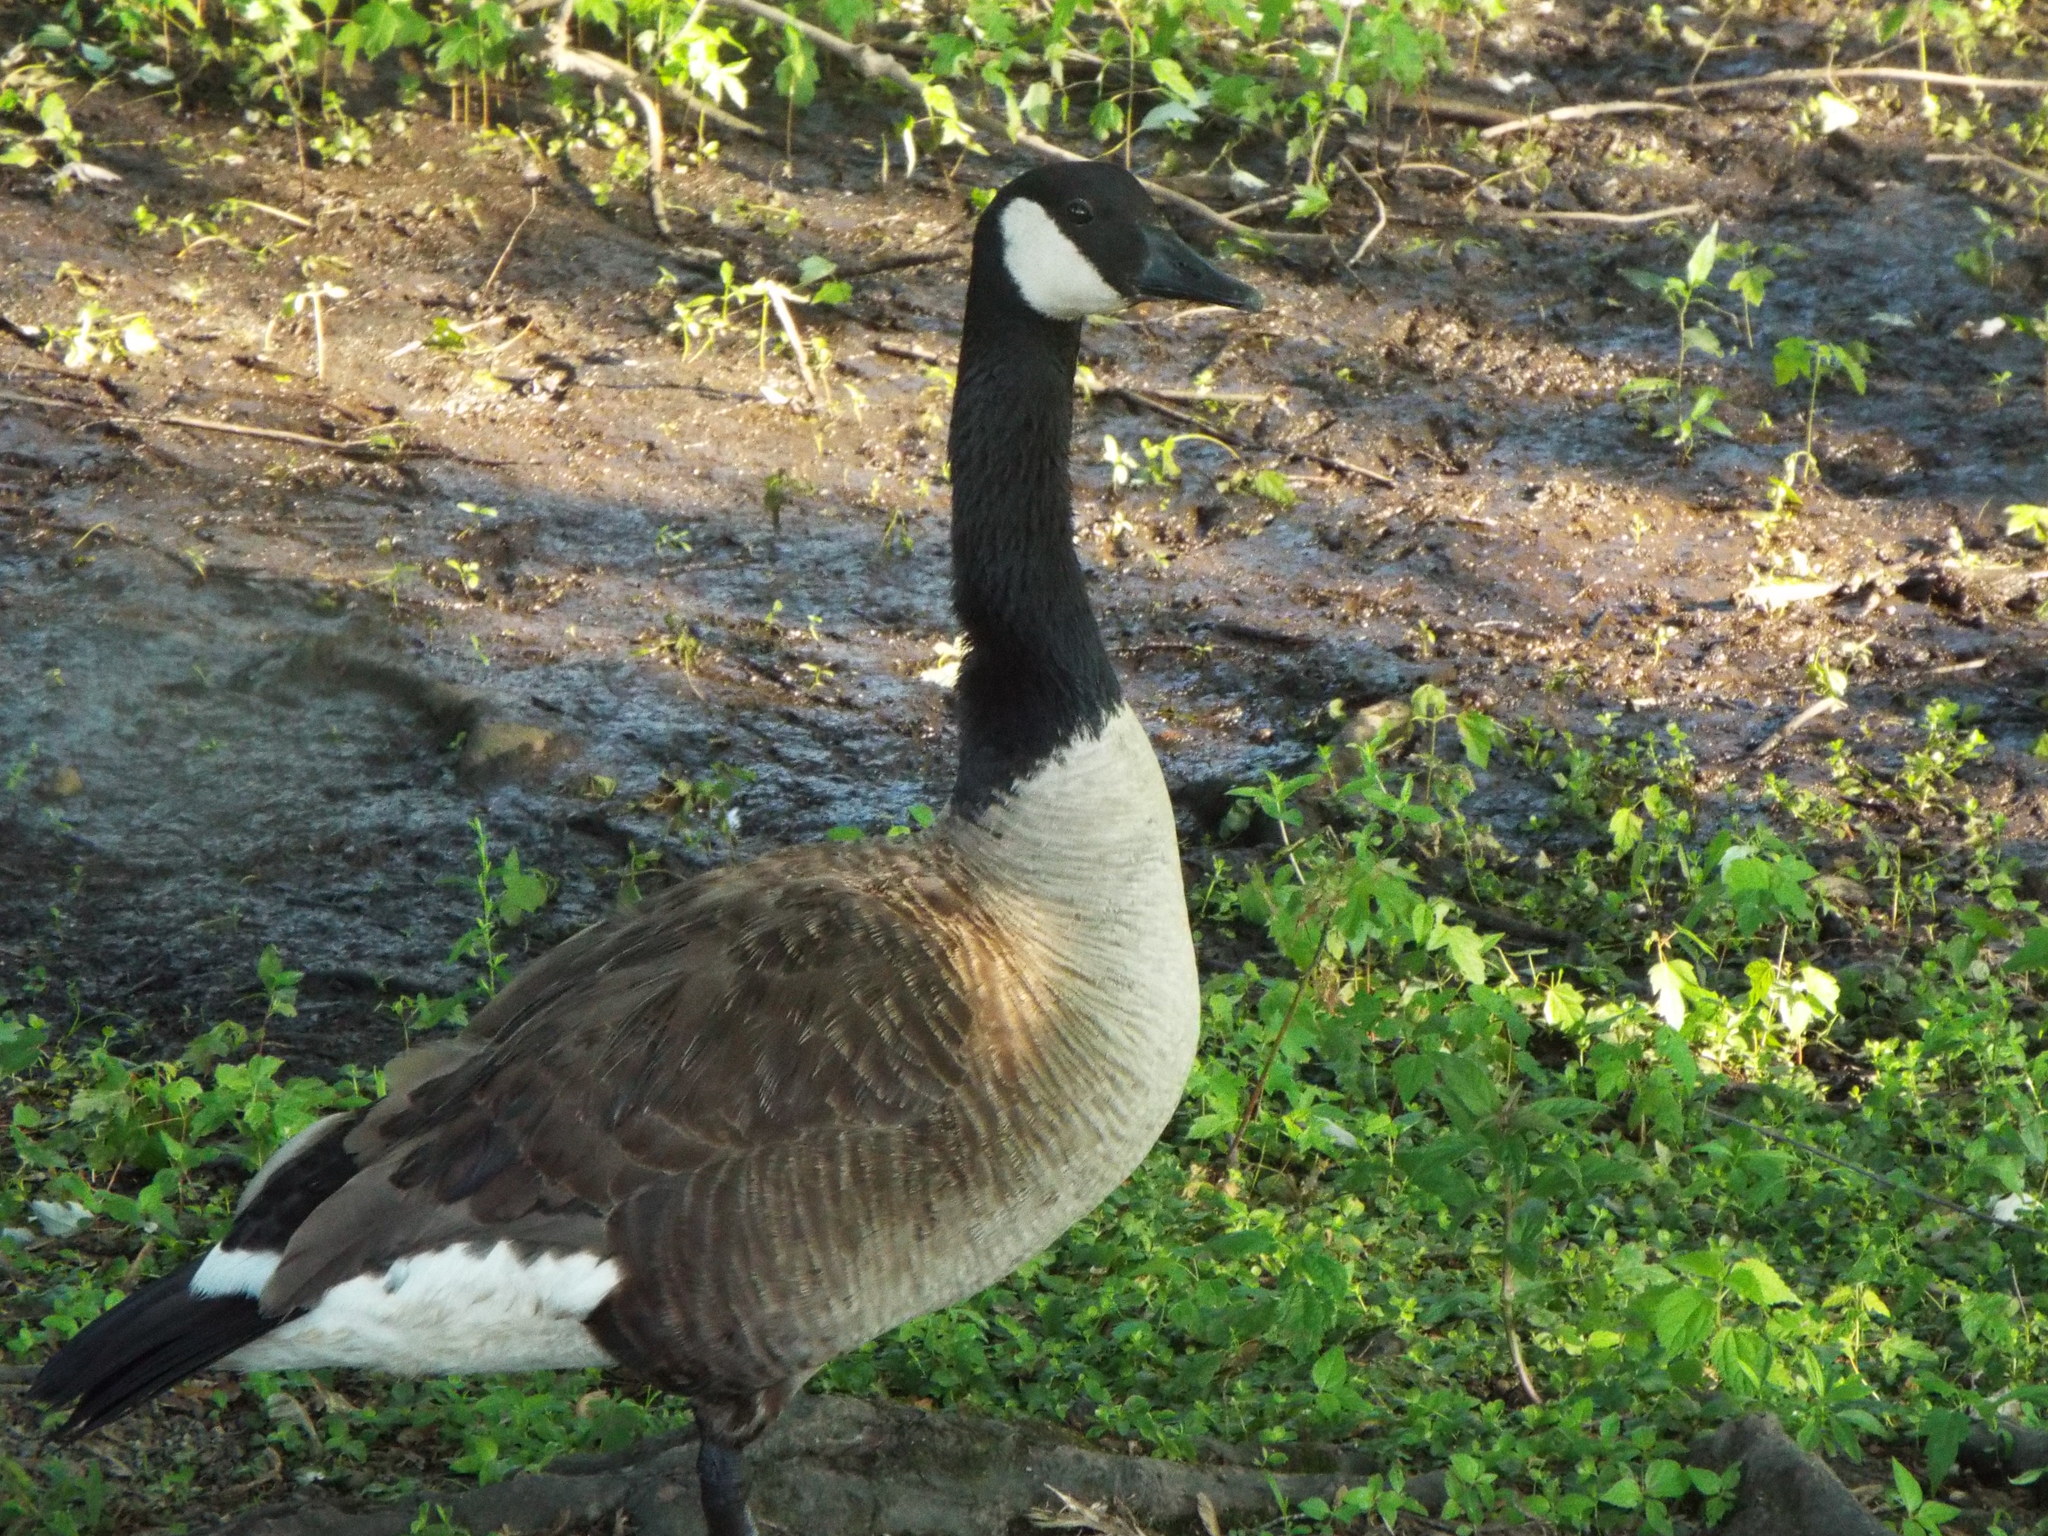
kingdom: Animalia
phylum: Chordata
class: Aves
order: Anseriformes
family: Anatidae
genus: Branta
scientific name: Branta canadensis
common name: Canada goose
